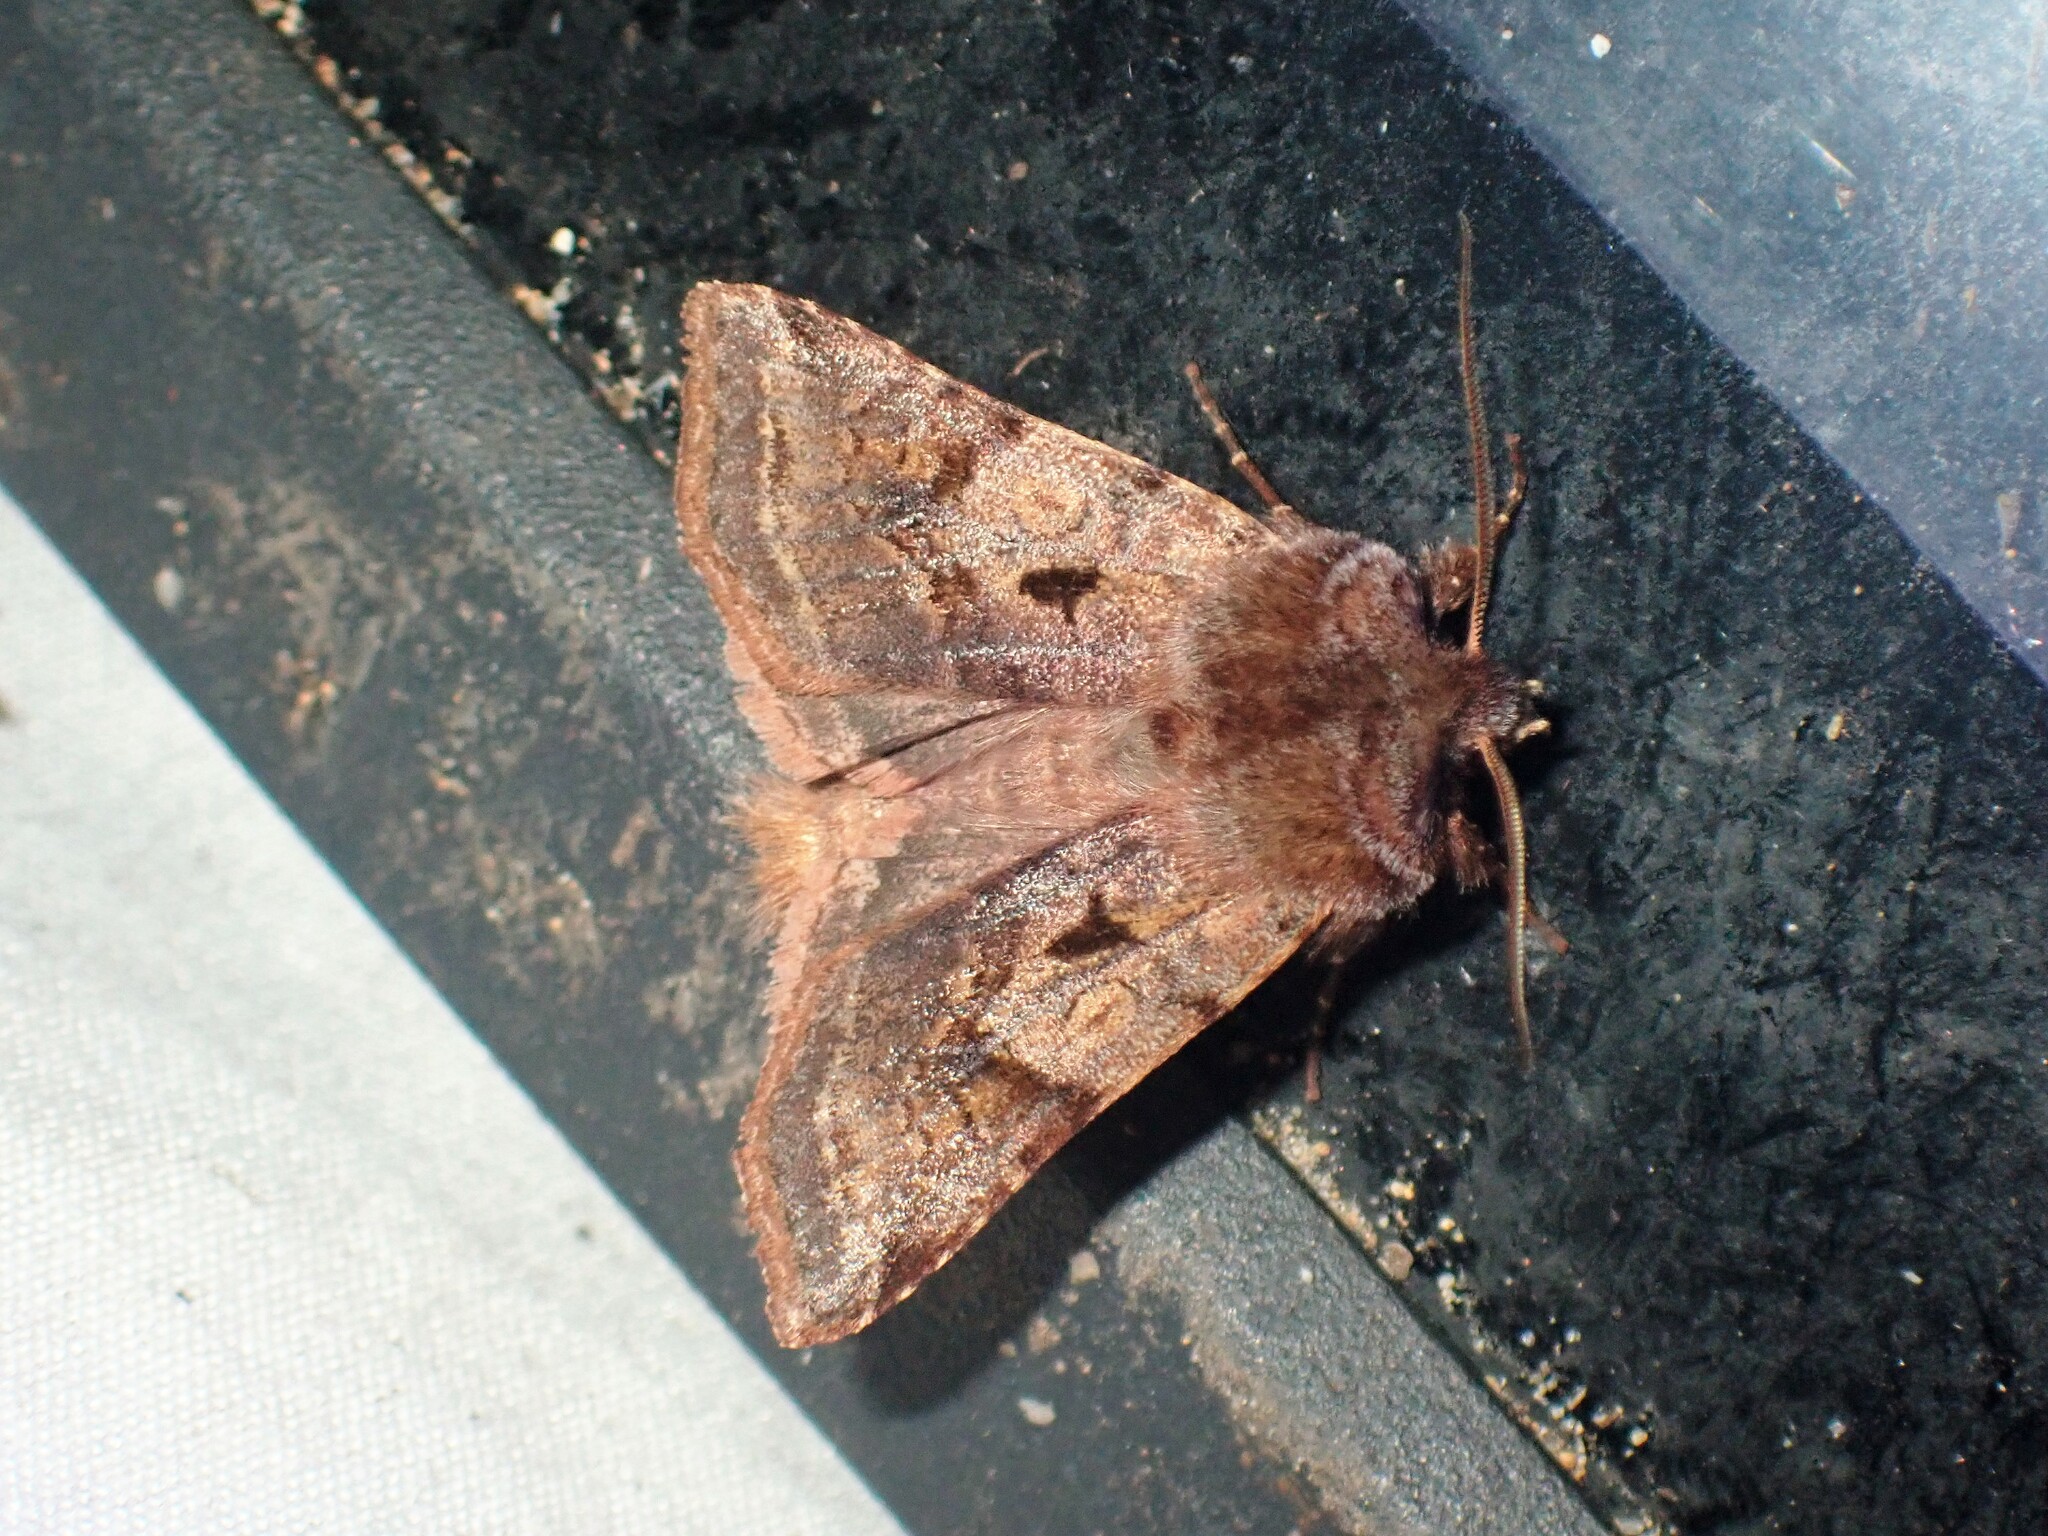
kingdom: Animalia
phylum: Arthropoda
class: Insecta
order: Lepidoptera
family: Noctuidae
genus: Cerastis
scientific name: Cerastis salicarum
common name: Willow dart
